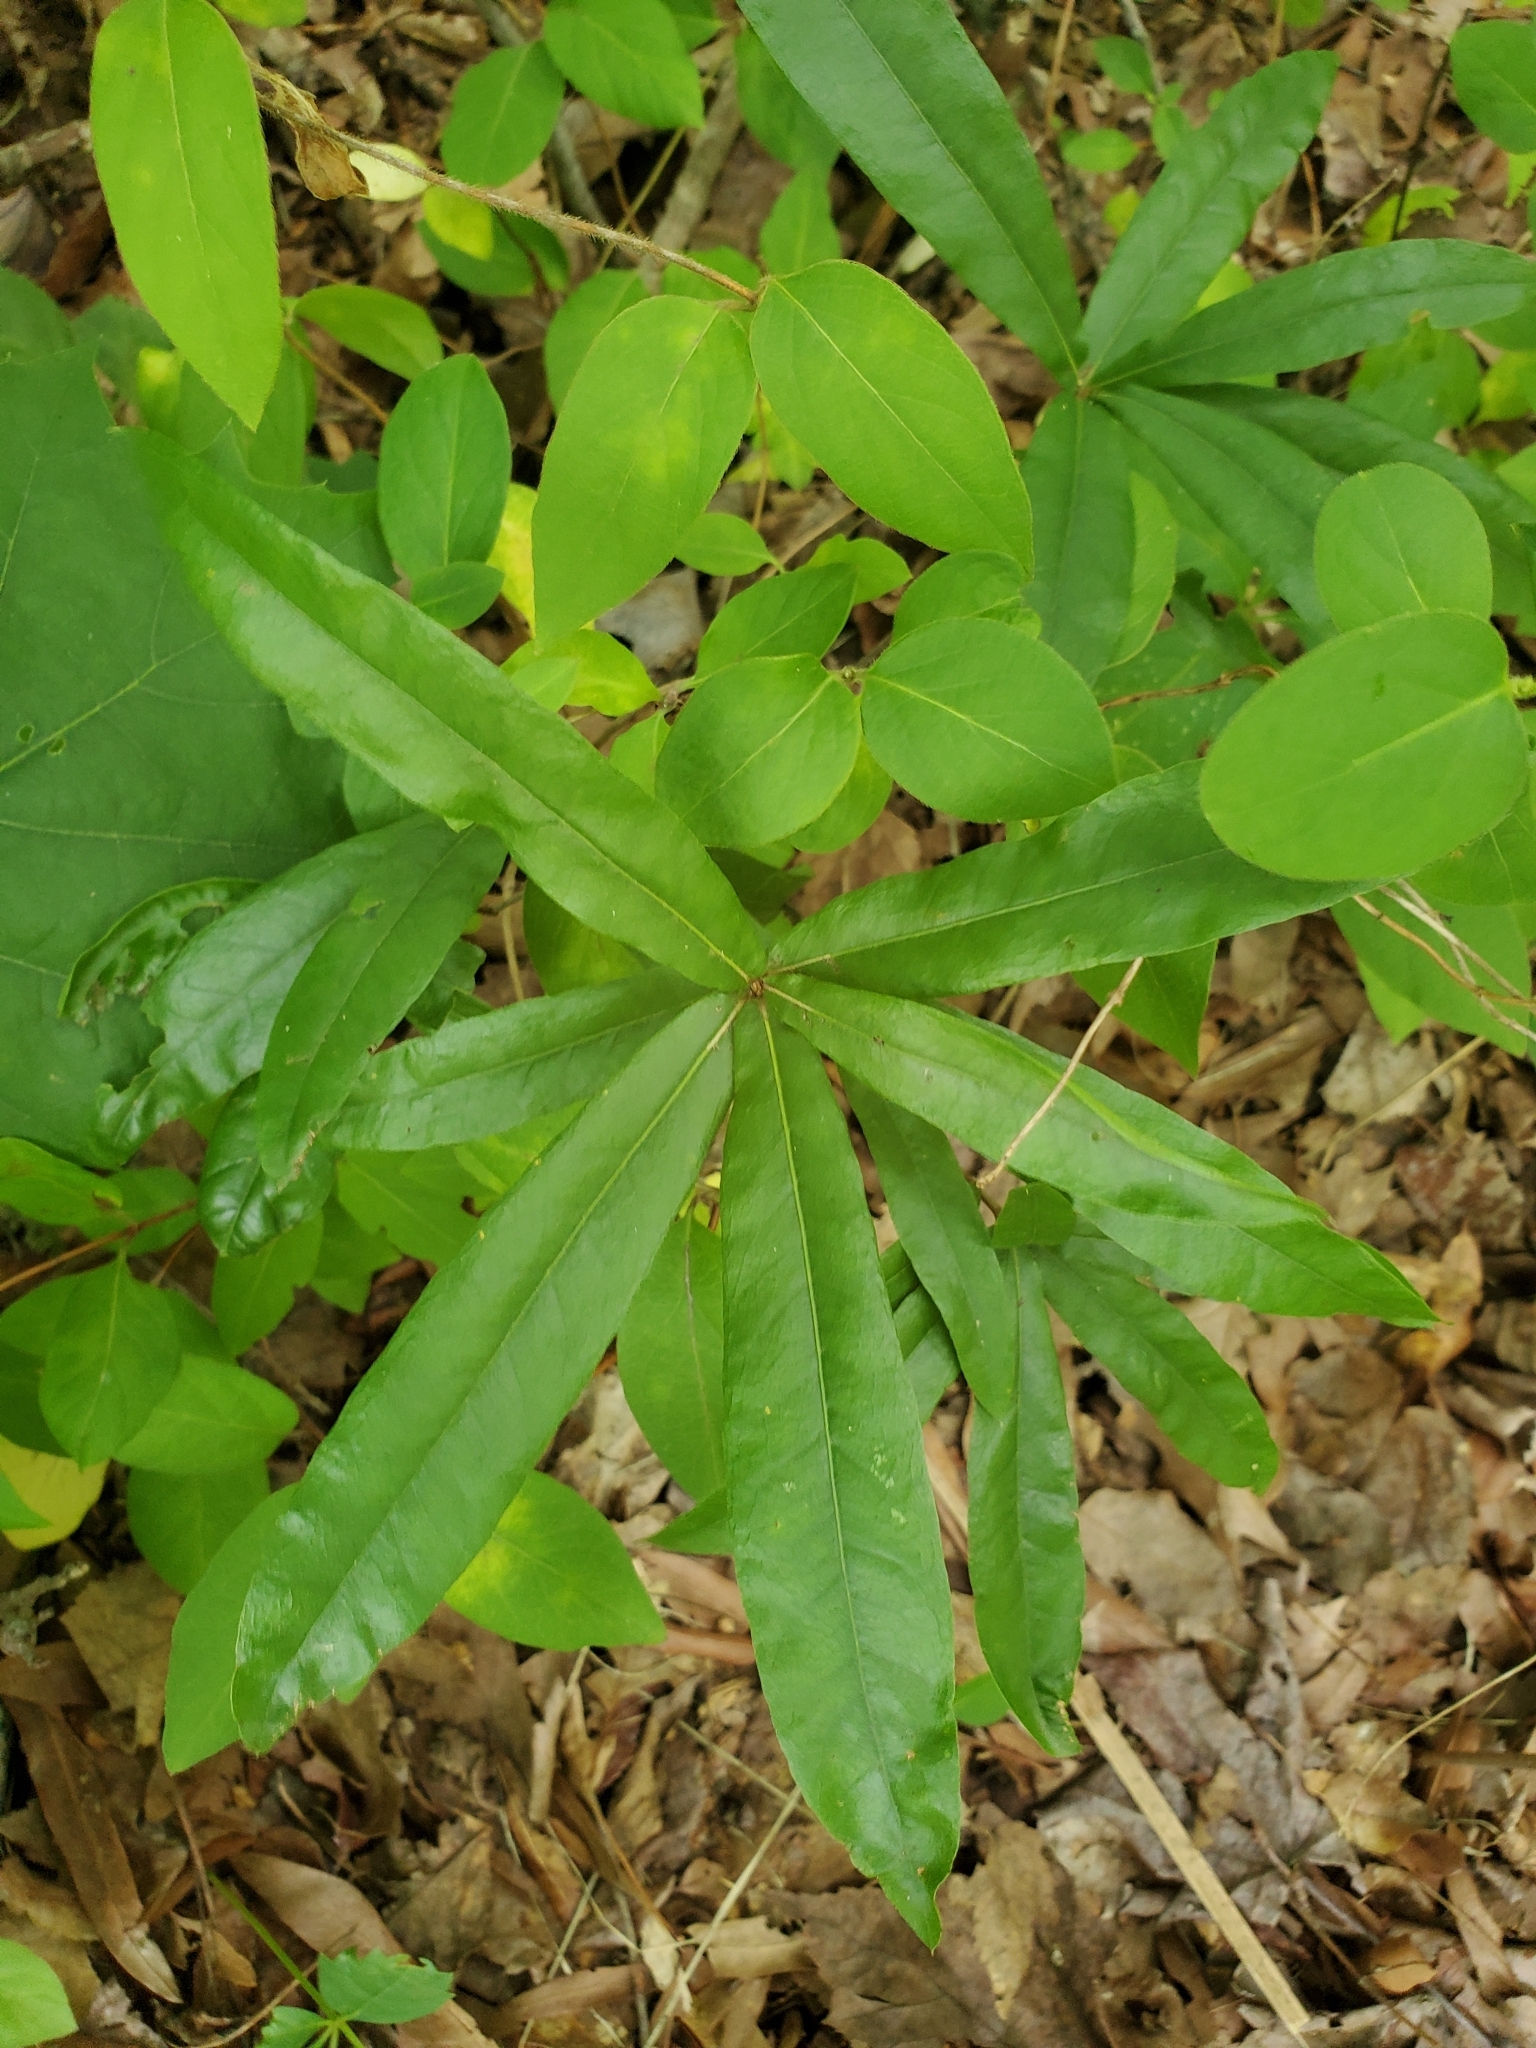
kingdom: Plantae
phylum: Tracheophyta
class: Magnoliopsida
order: Fagales
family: Fagaceae
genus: Quercus
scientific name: Quercus phellos
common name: Willow oak
